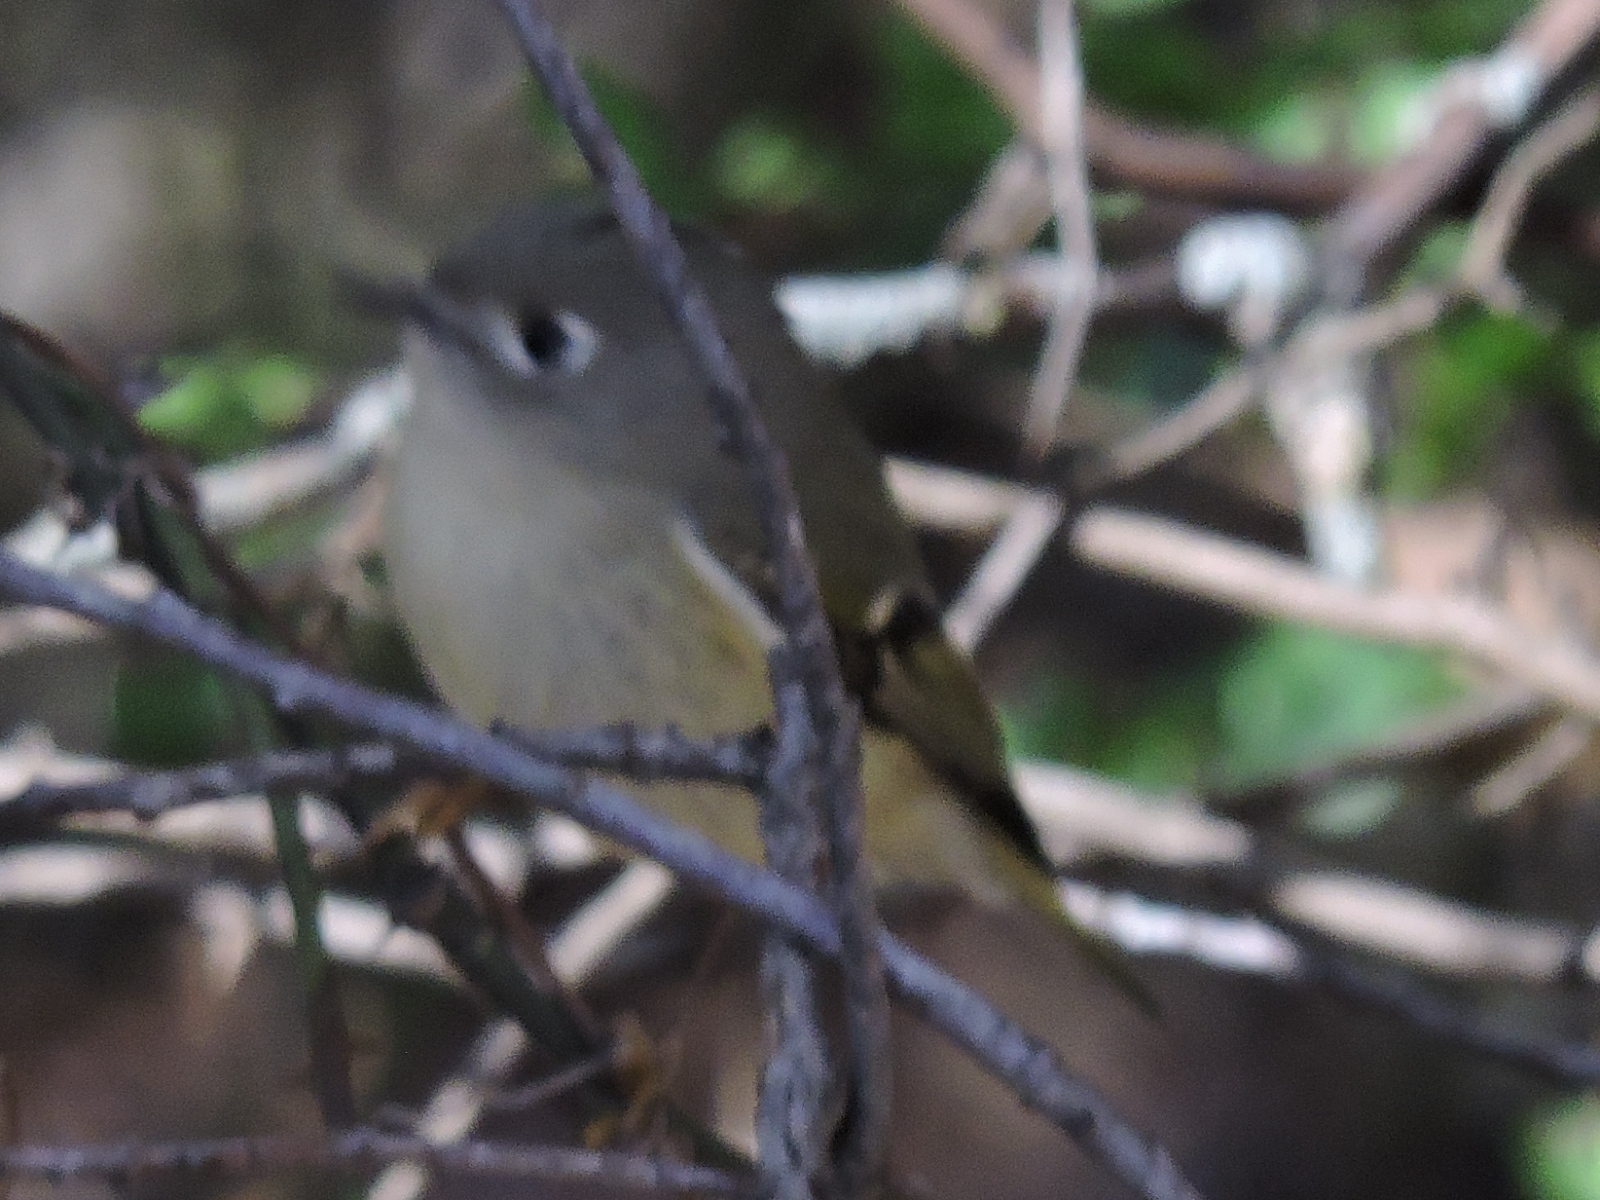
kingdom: Animalia
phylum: Chordata
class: Aves
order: Passeriformes
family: Regulidae
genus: Regulus
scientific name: Regulus calendula
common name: Ruby-crowned kinglet
